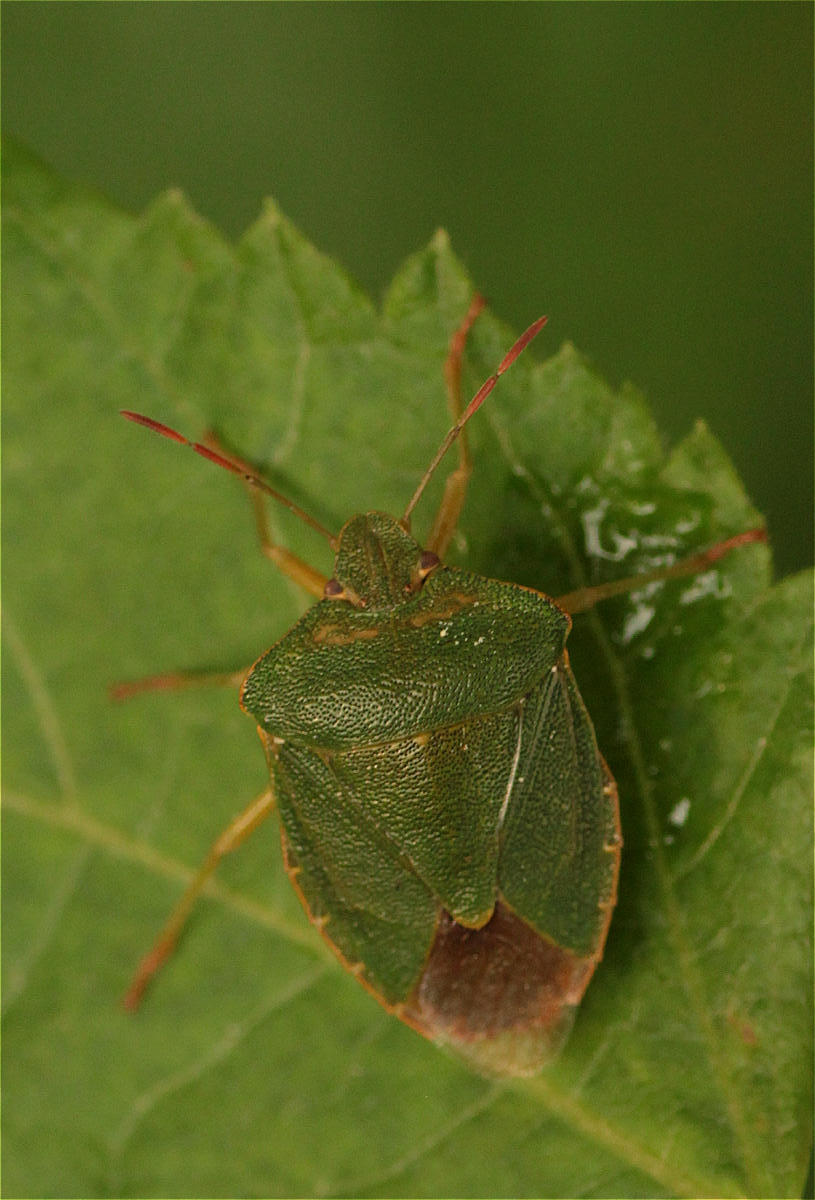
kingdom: Animalia
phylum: Arthropoda
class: Insecta
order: Hemiptera
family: Pentatomidae
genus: Palomena
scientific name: Palomena prasina
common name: Green shieldbug
